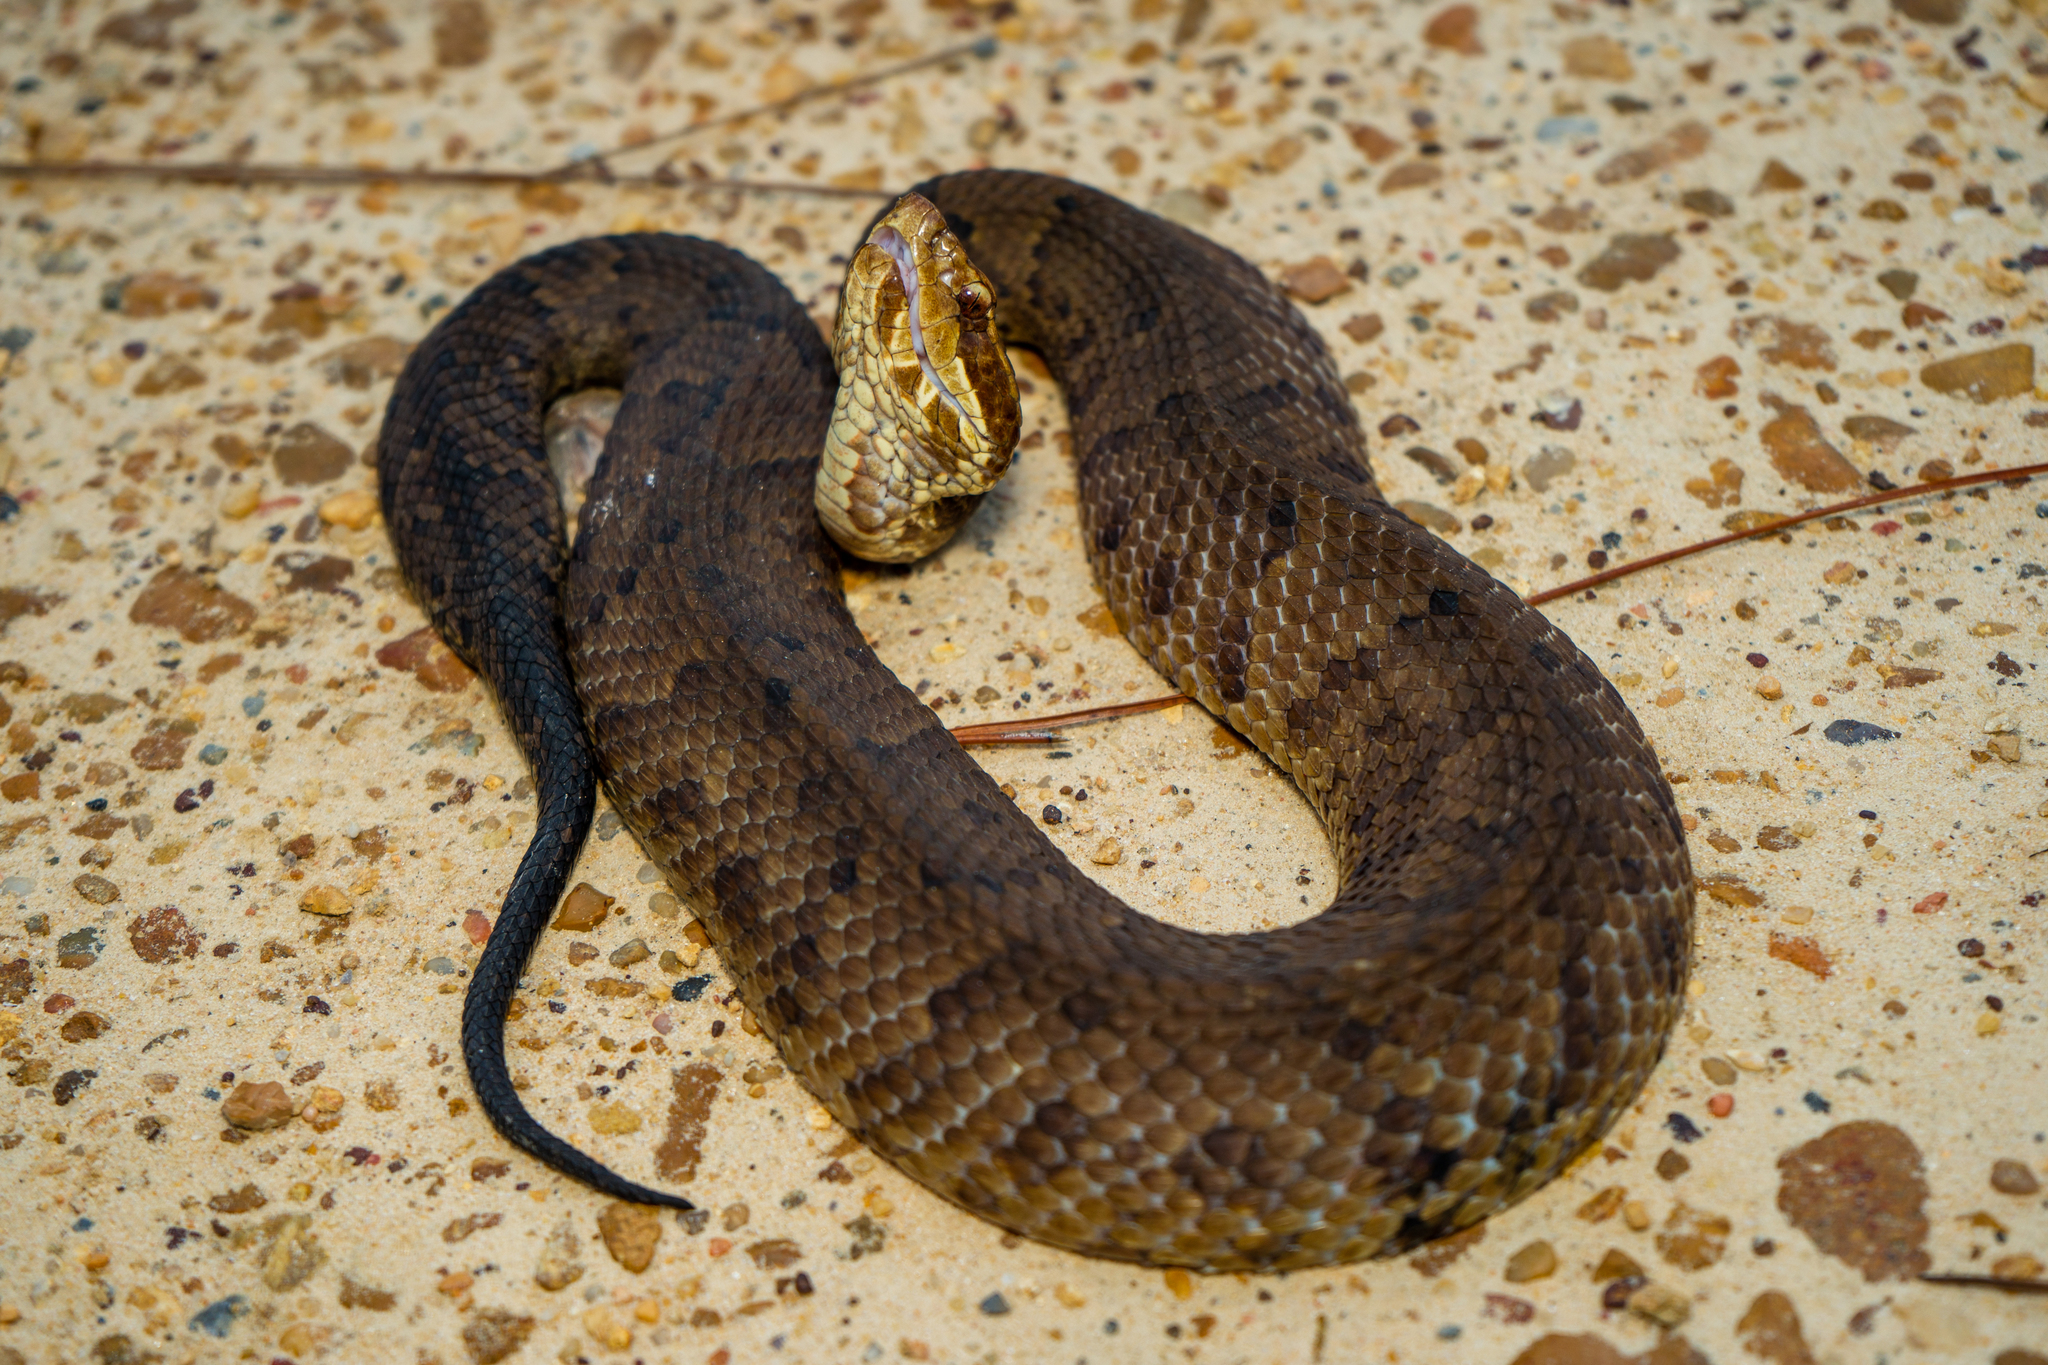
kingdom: Animalia
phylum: Chordata
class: Squamata
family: Viperidae
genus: Agkistrodon
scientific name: Agkistrodon piscivorus
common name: Cottonmouth
